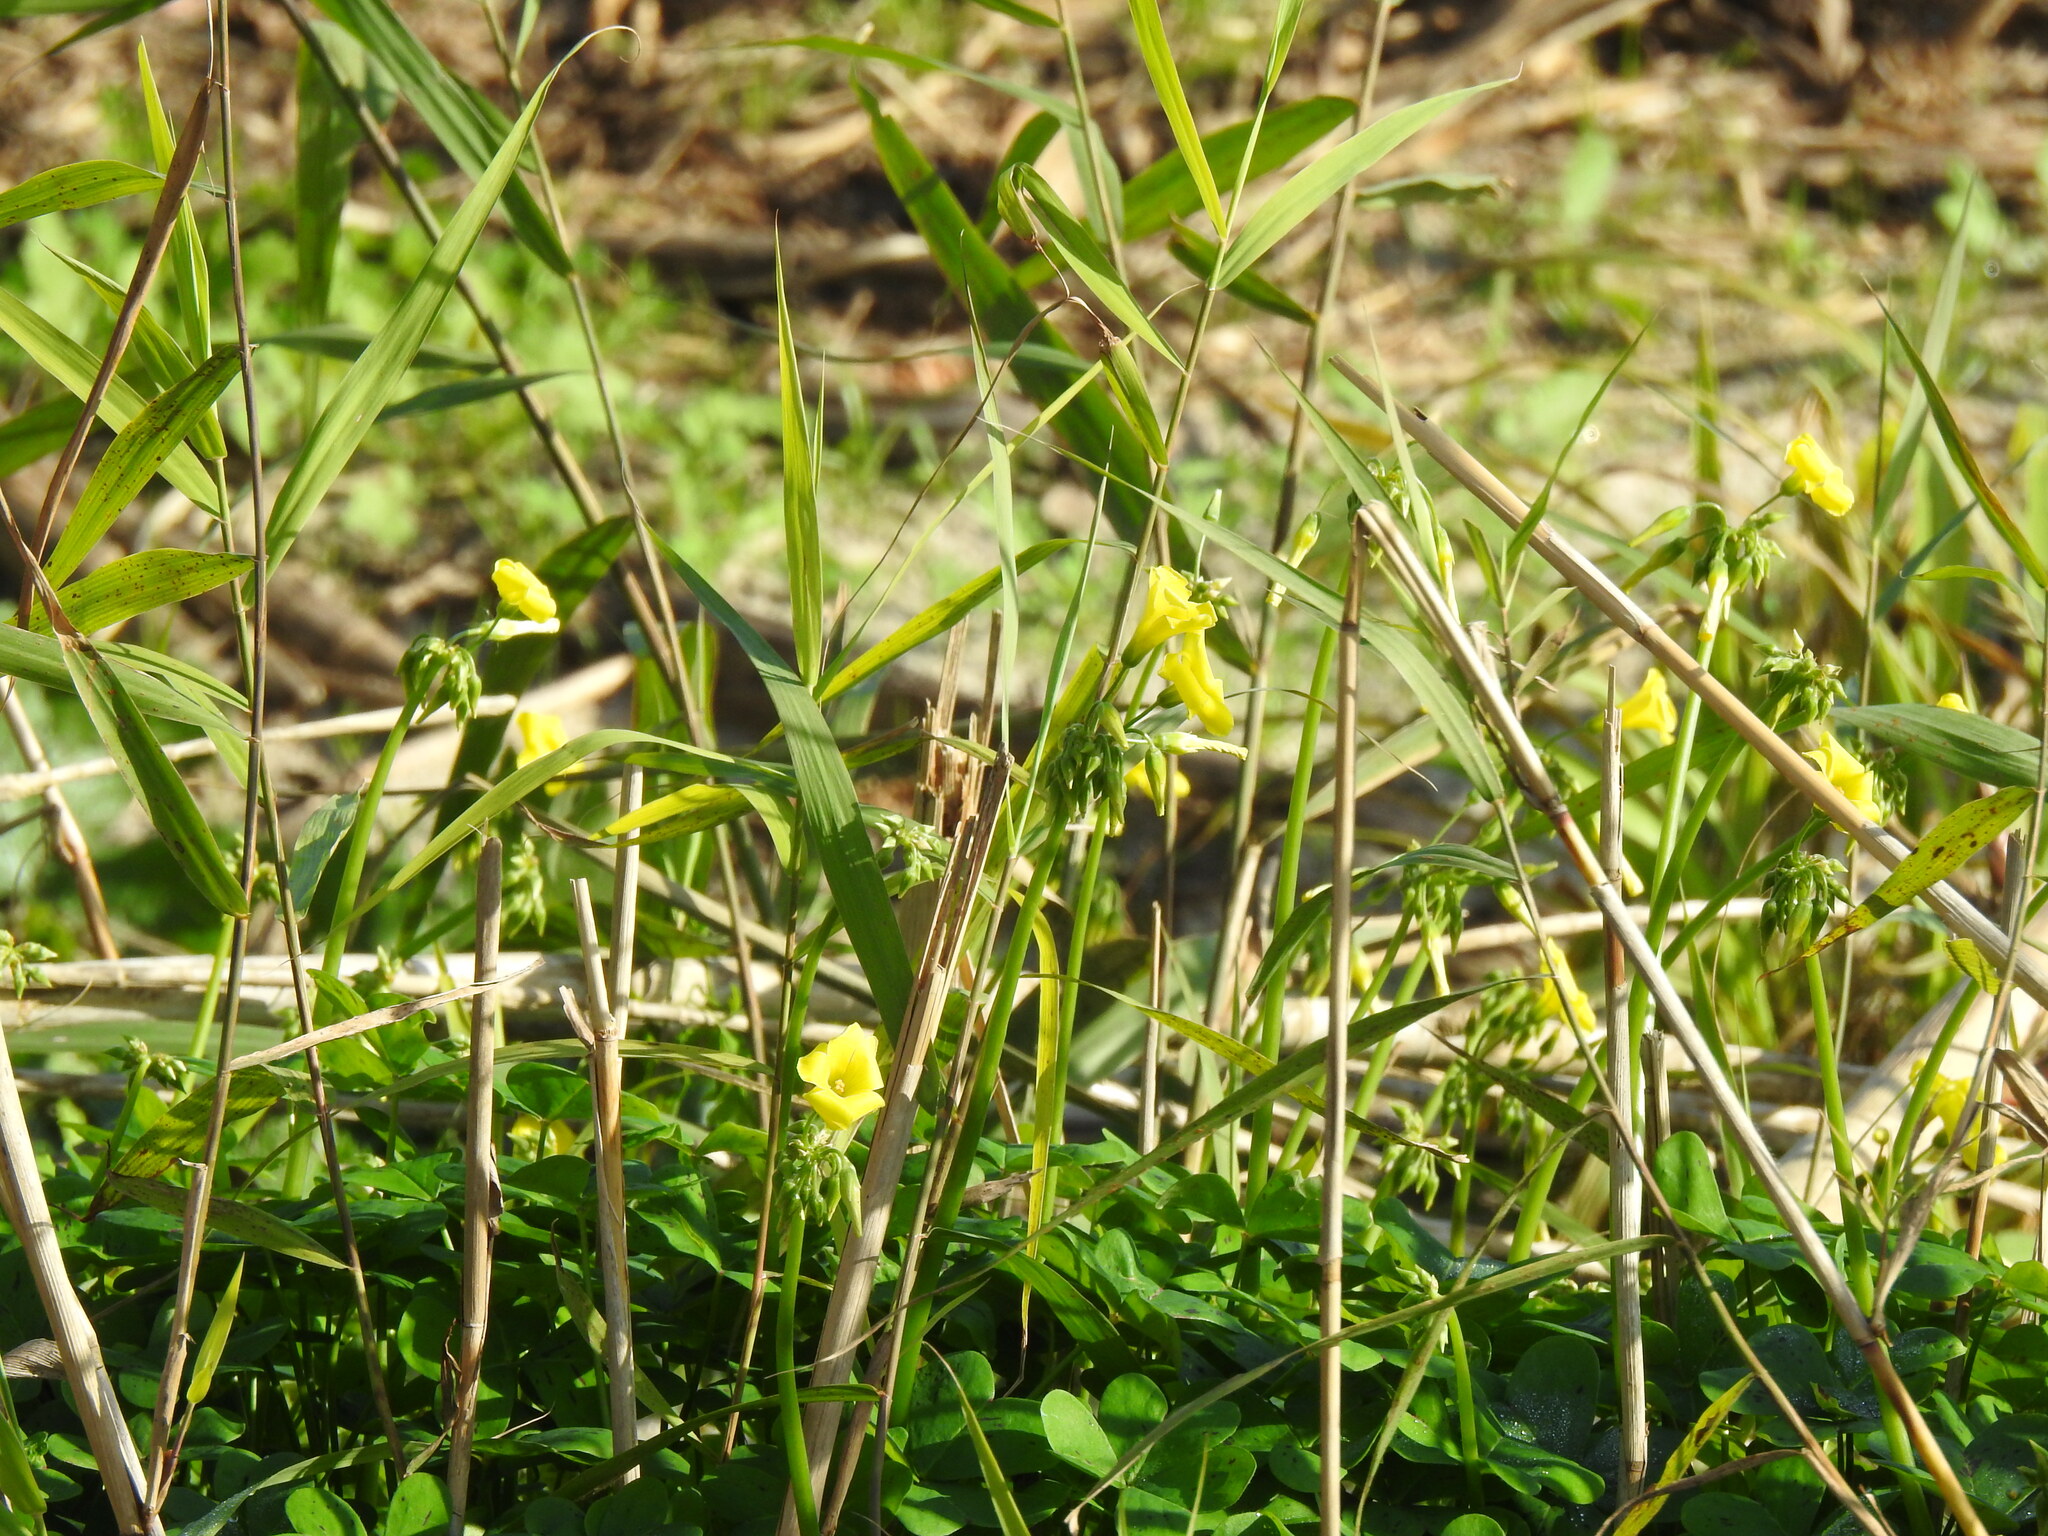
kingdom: Plantae
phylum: Tracheophyta
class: Magnoliopsida
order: Oxalidales
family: Oxalidaceae
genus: Oxalis
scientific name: Oxalis pes-caprae
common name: Bermuda-buttercup
